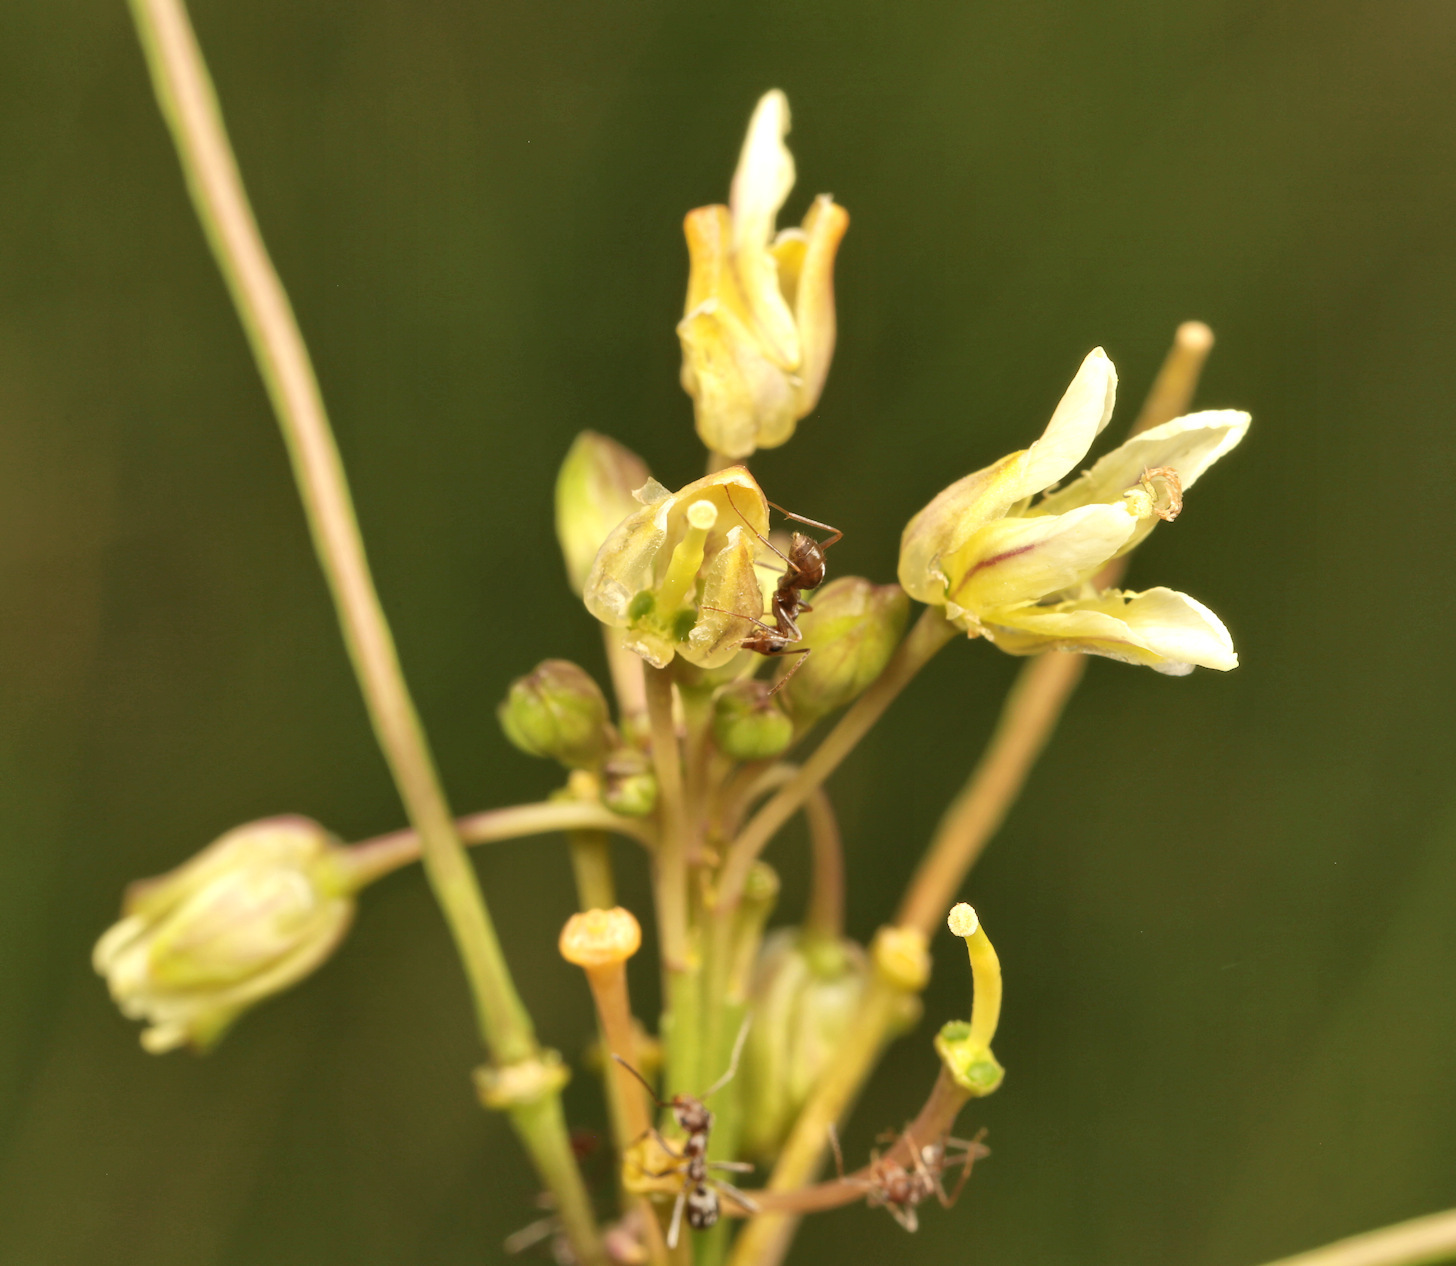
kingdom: Plantae
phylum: Tracheophyta
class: Magnoliopsida
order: Brassicales
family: Brassicaceae
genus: Heliophila
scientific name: Heliophila elongata
